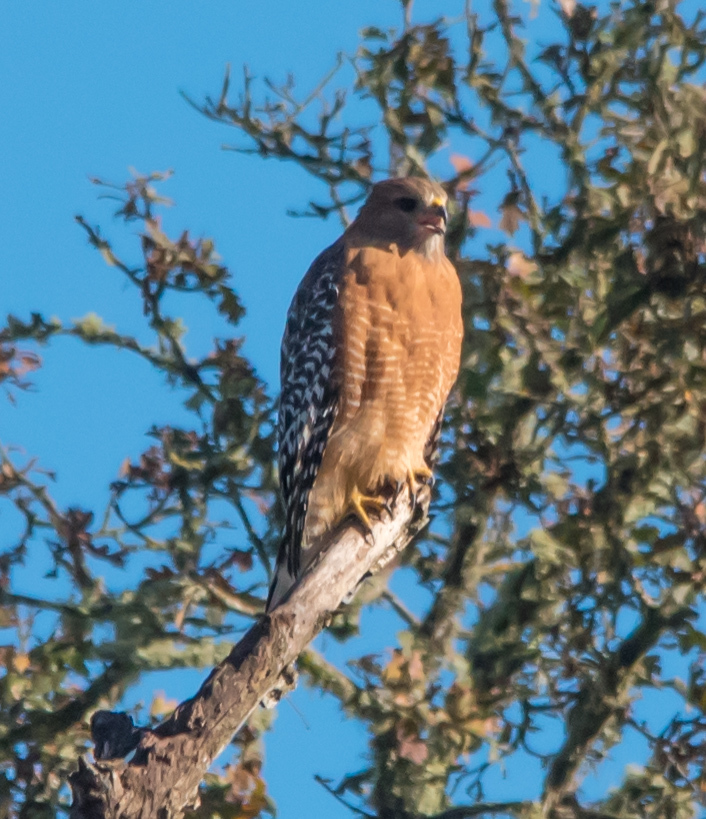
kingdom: Animalia
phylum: Chordata
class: Aves
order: Accipitriformes
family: Accipitridae
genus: Buteo
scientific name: Buteo lineatus
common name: Red-shouldered hawk
